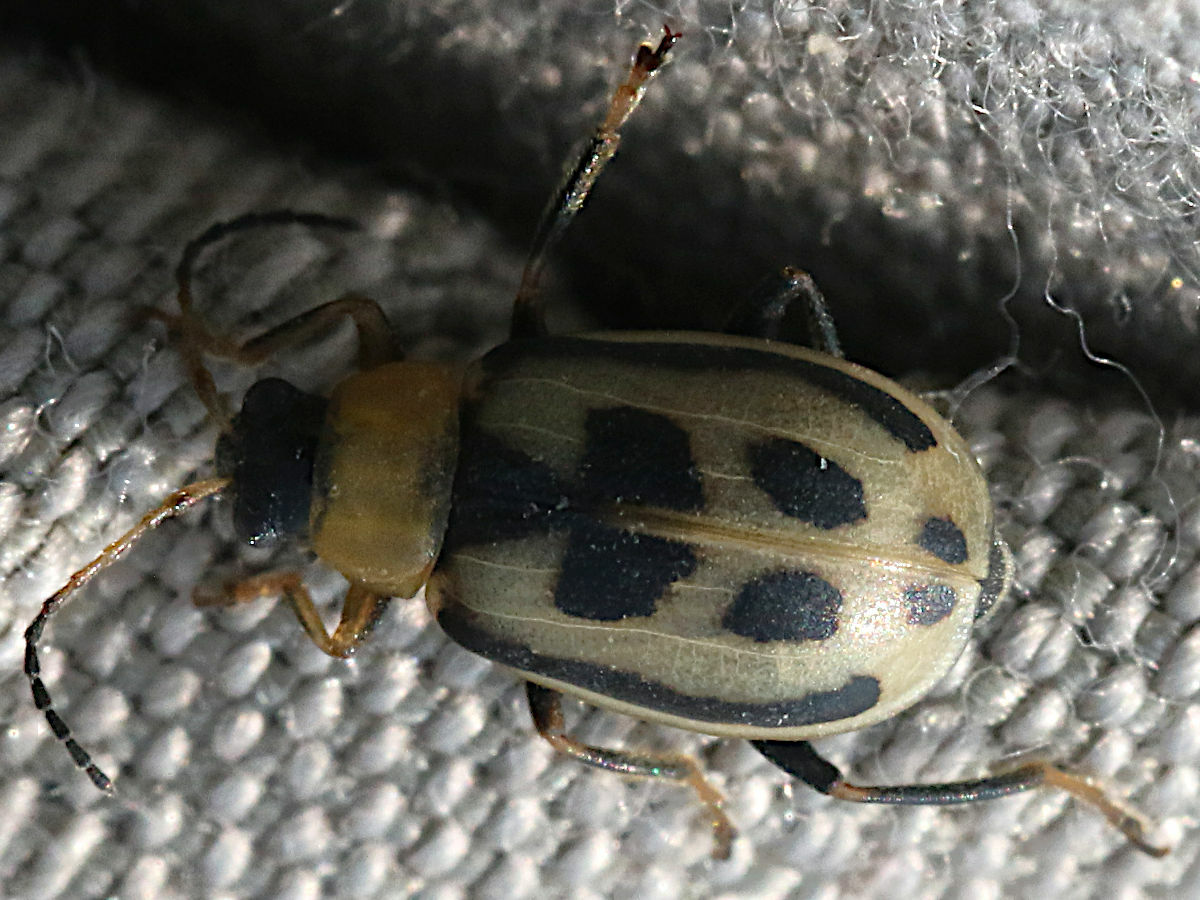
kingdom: Animalia
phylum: Arthropoda
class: Insecta
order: Coleoptera
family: Chrysomelidae
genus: Cerotoma
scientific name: Cerotoma trifurcata
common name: Bean leaf beetle
